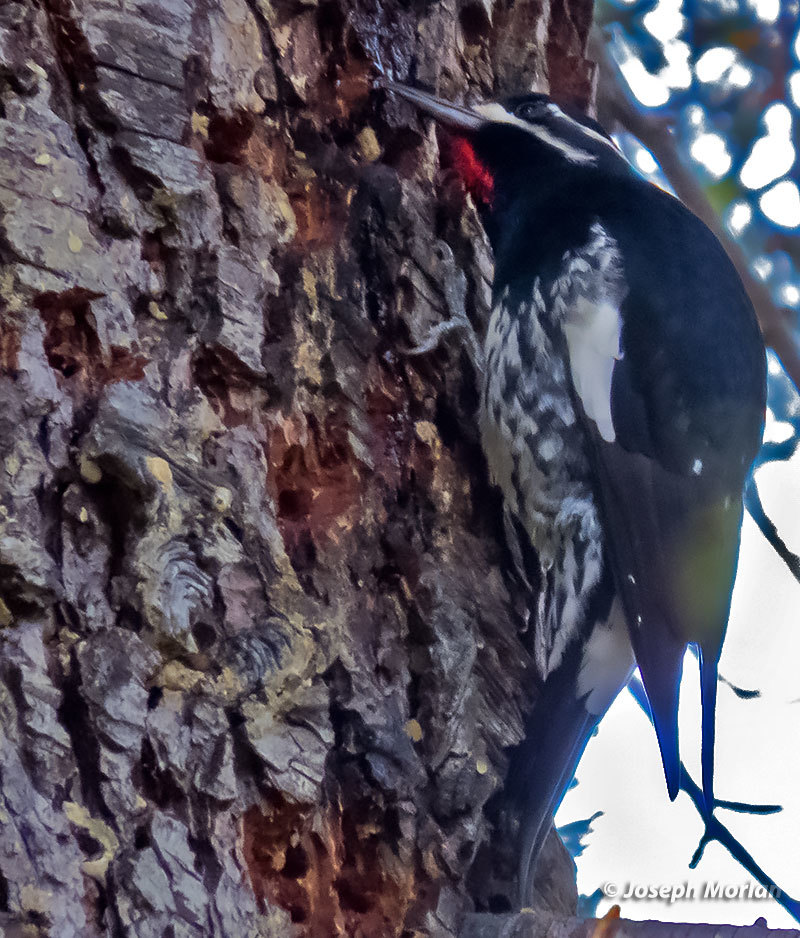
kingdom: Animalia
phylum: Chordata
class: Aves
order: Piciformes
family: Picidae
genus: Sphyrapicus
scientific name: Sphyrapicus thyroideus
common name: Williamson's sapsucker
